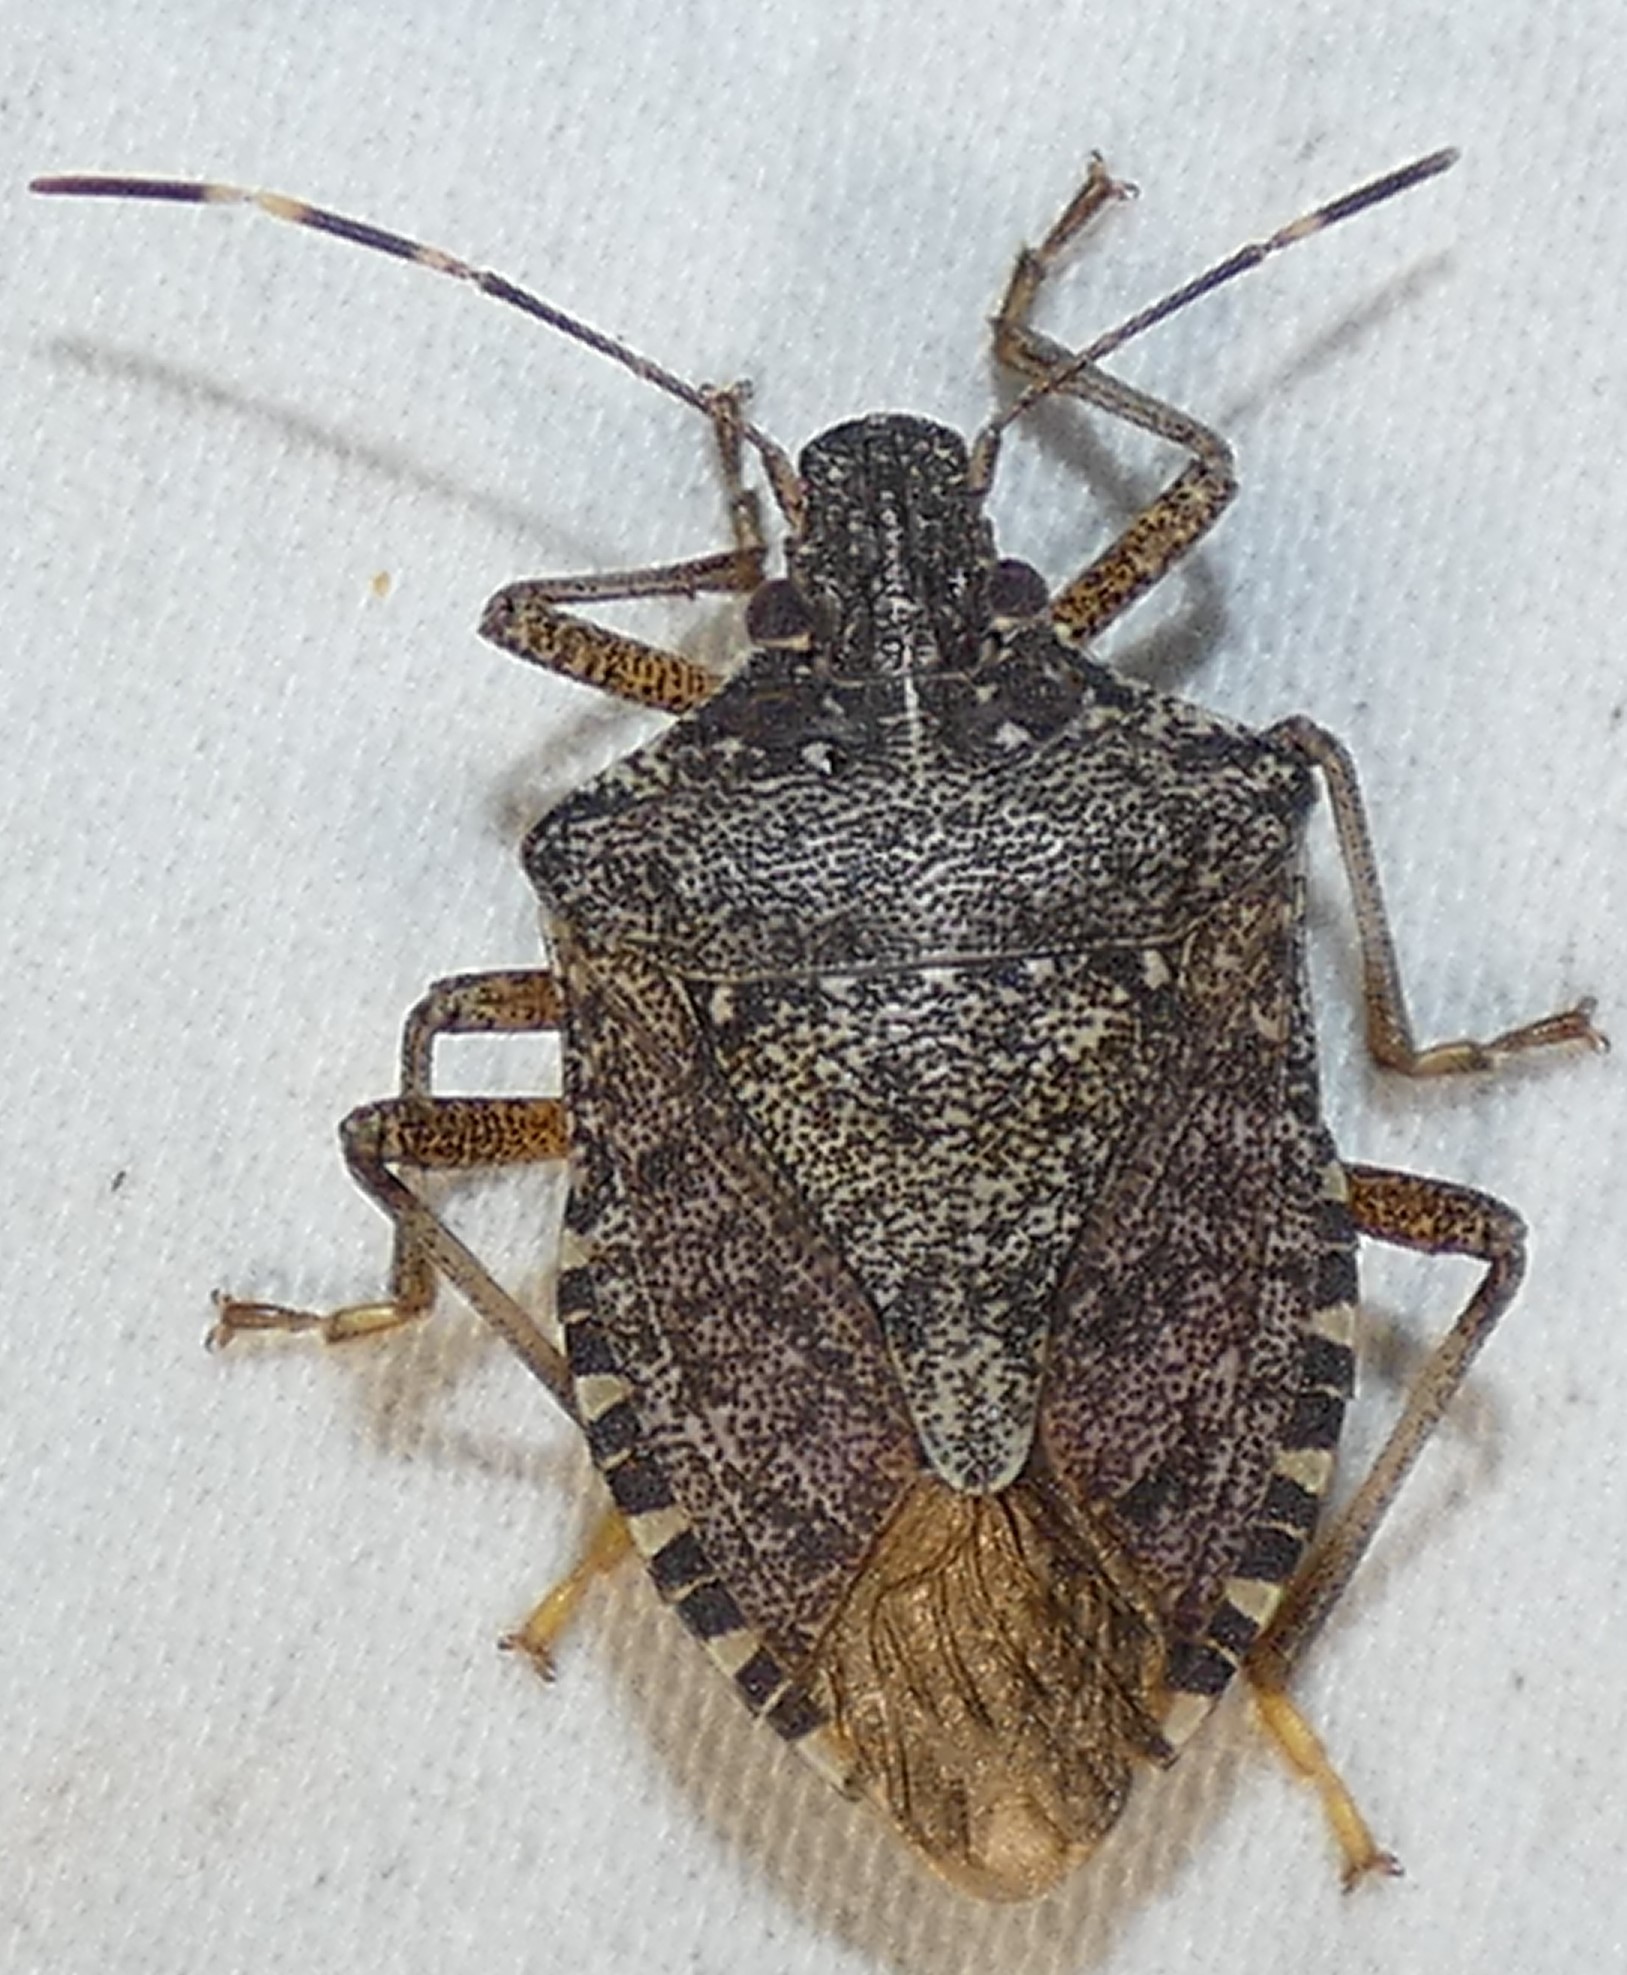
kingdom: Animalia
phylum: Arthropoda
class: Insecta
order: Hemiptera
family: Pentatomidae
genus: Halyomorpha
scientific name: Halyomorpha halys
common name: Brown marmorated stink bug
